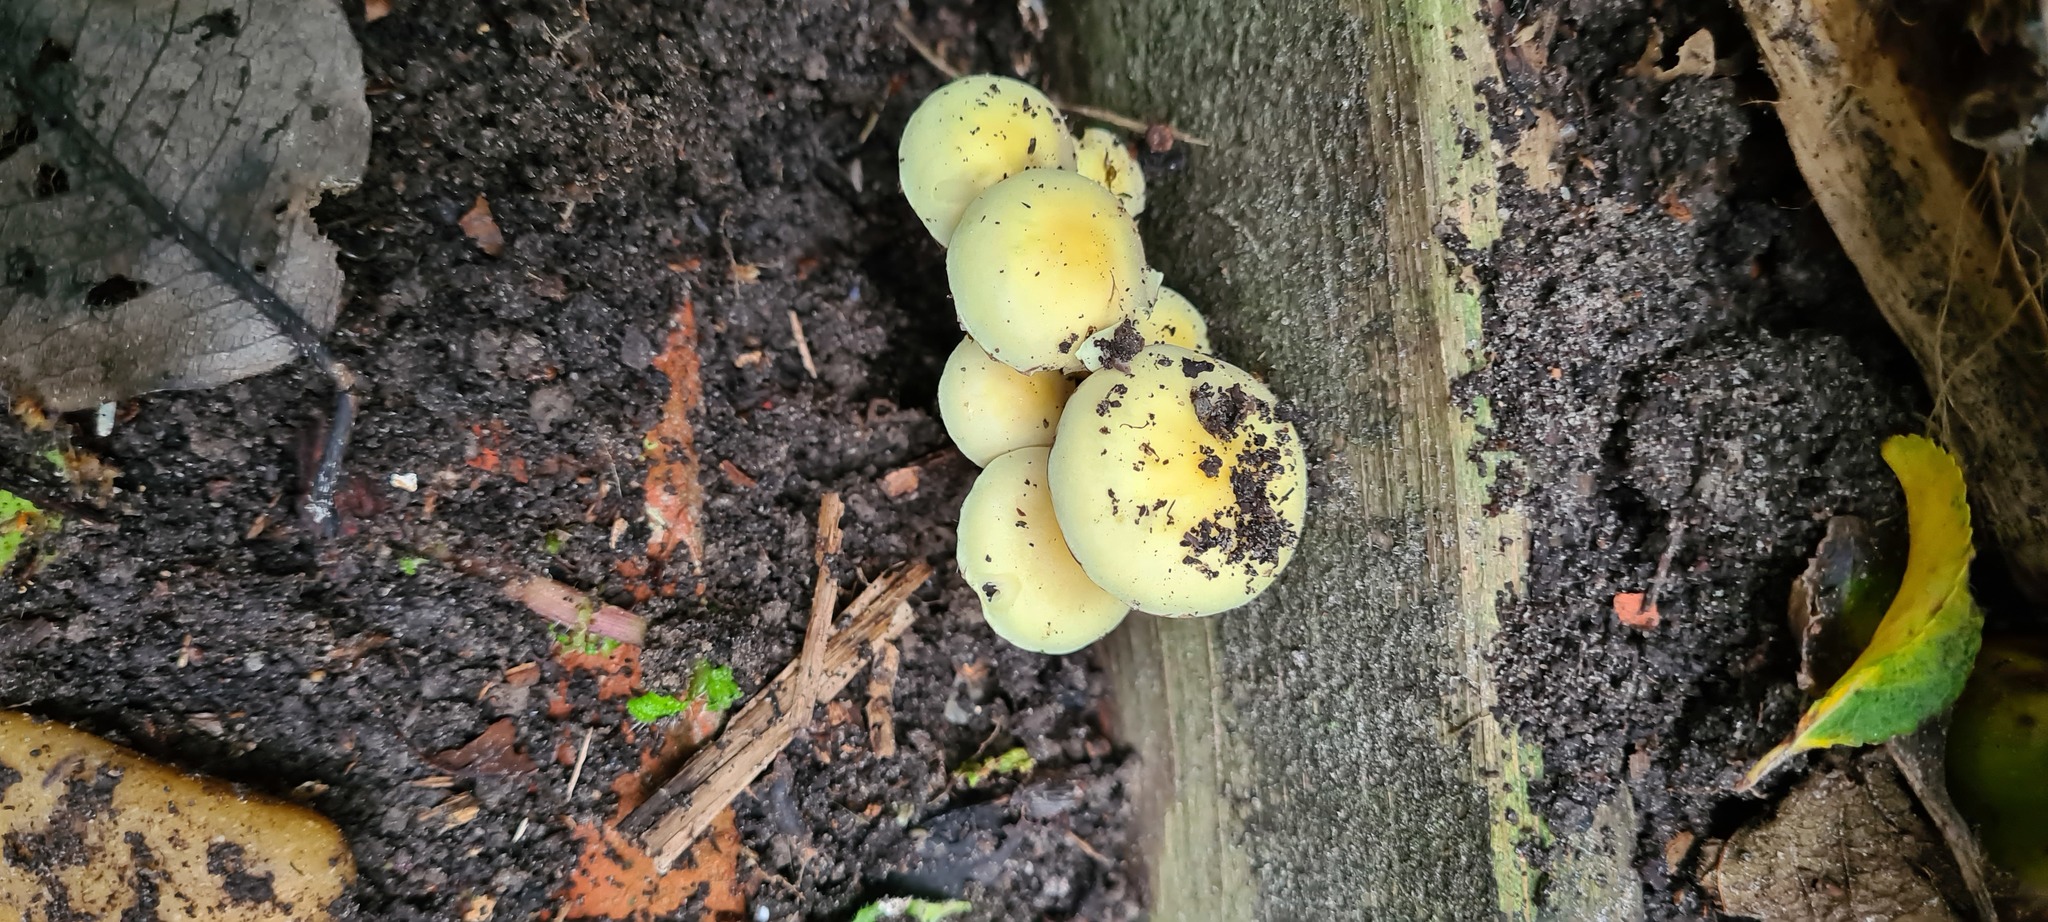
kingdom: Fungi
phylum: Basidiomycota
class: Agaricomycetes
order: Agaricales
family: Strophariaceae
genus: Hypholoma
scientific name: Hypholoma fasciculare
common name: Sulphur tuft
